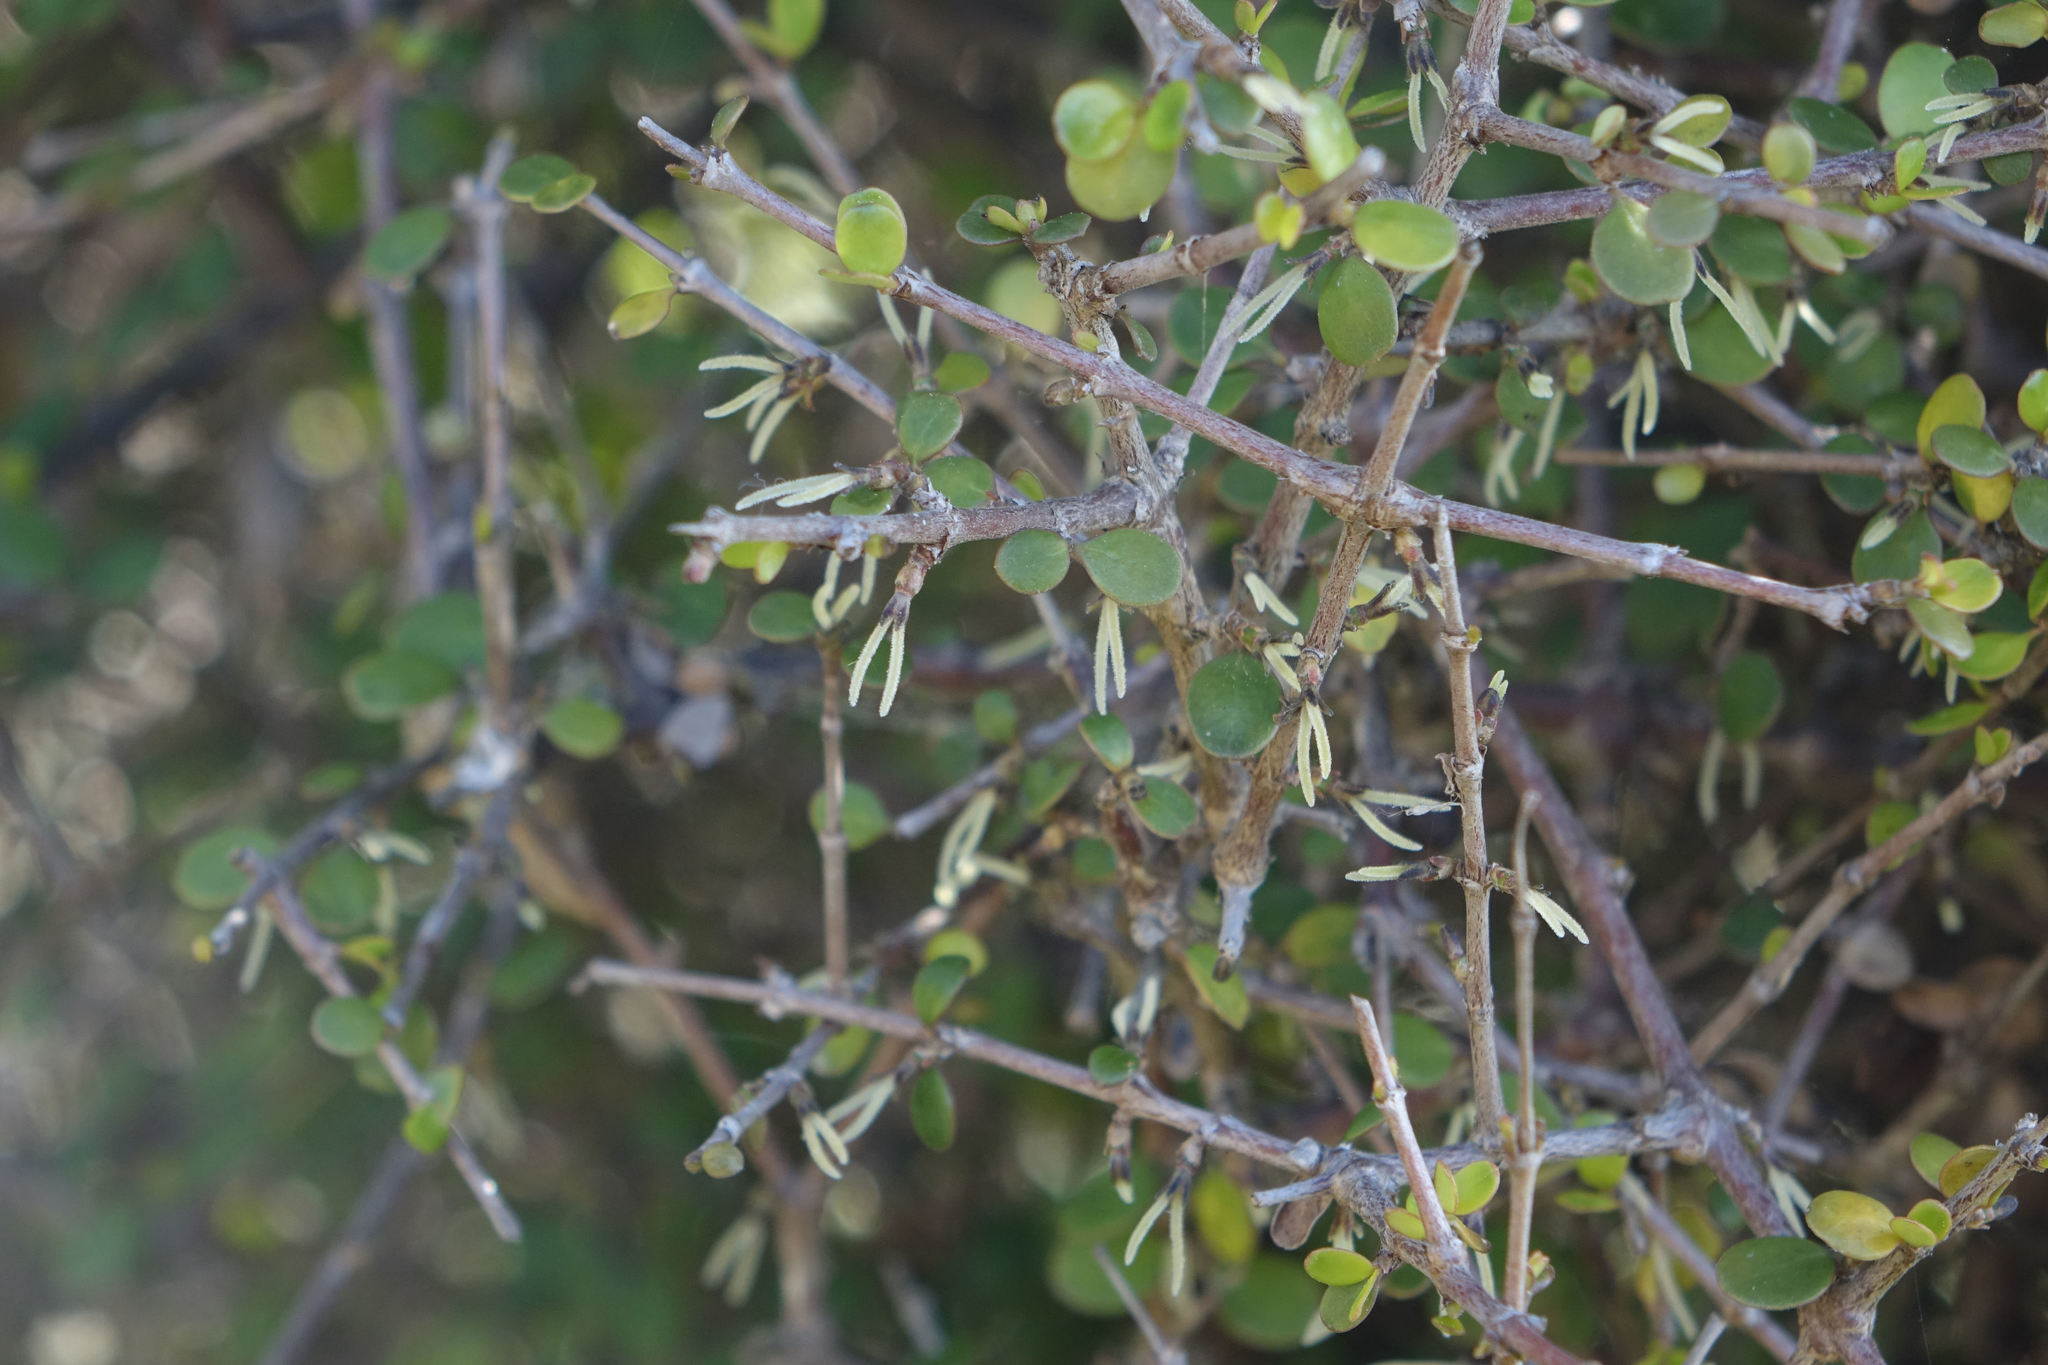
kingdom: Plantae
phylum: Tracheophyta
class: Magnoliopsida
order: Gentianales
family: Rubiaceae
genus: Coprosma
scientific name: Coprosma crassifolia
